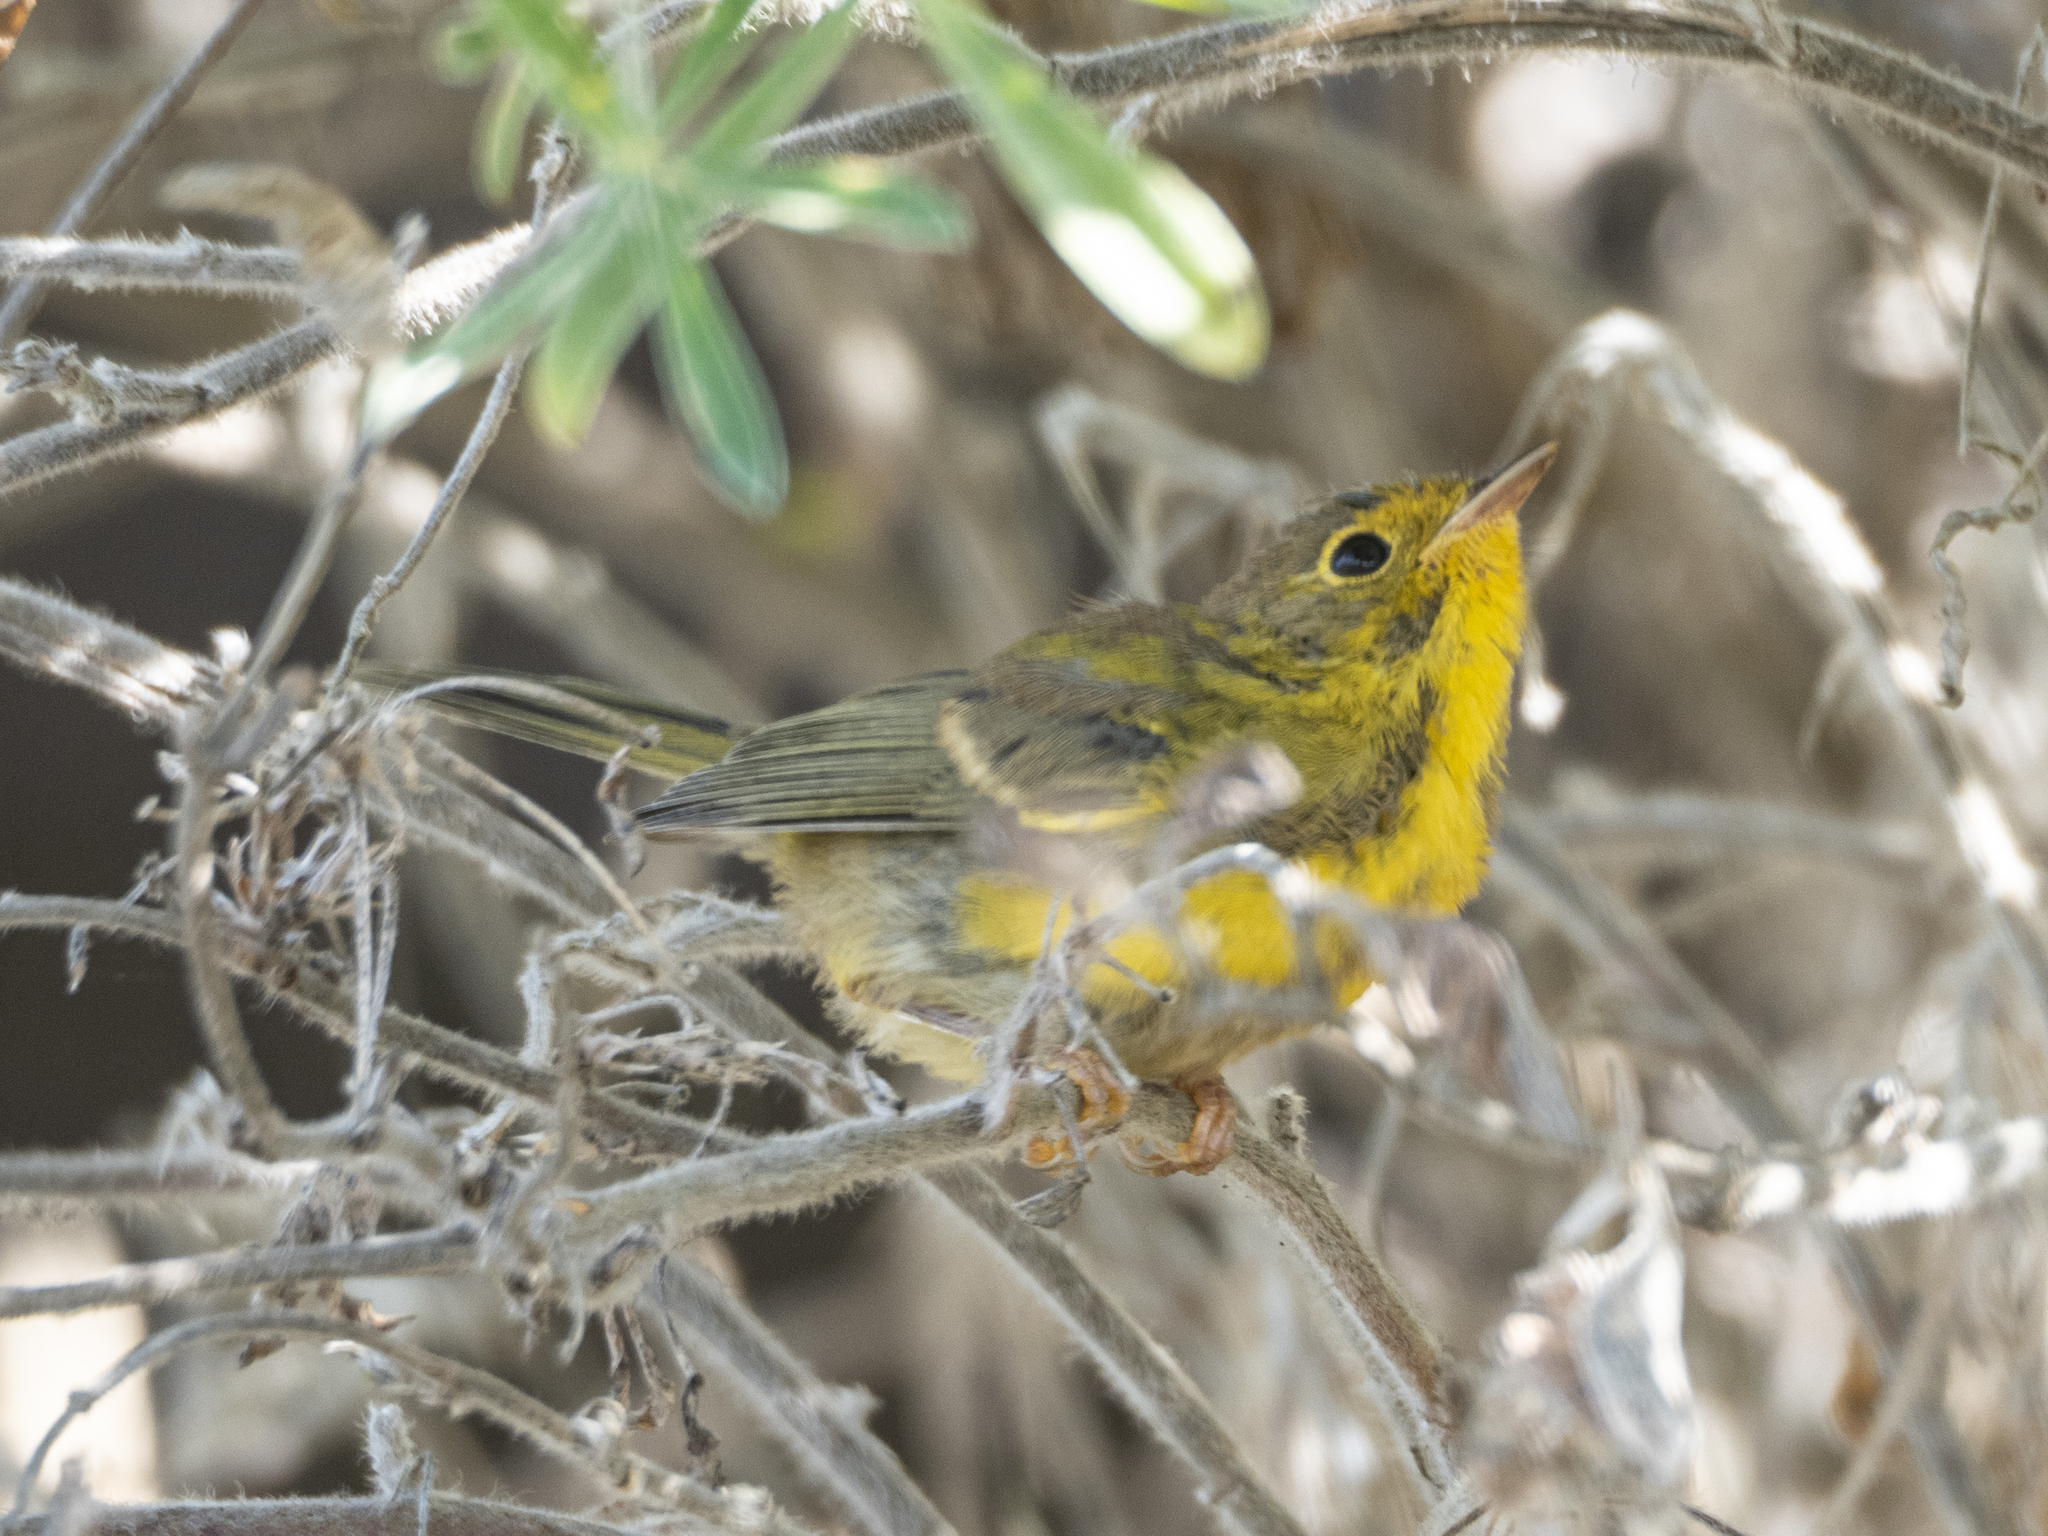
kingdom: Animalia
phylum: Chordata
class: Aves
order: Passeriformes
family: Parulidae
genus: Cardellina
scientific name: Cardellina pusilla
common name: Wilson's warbler
